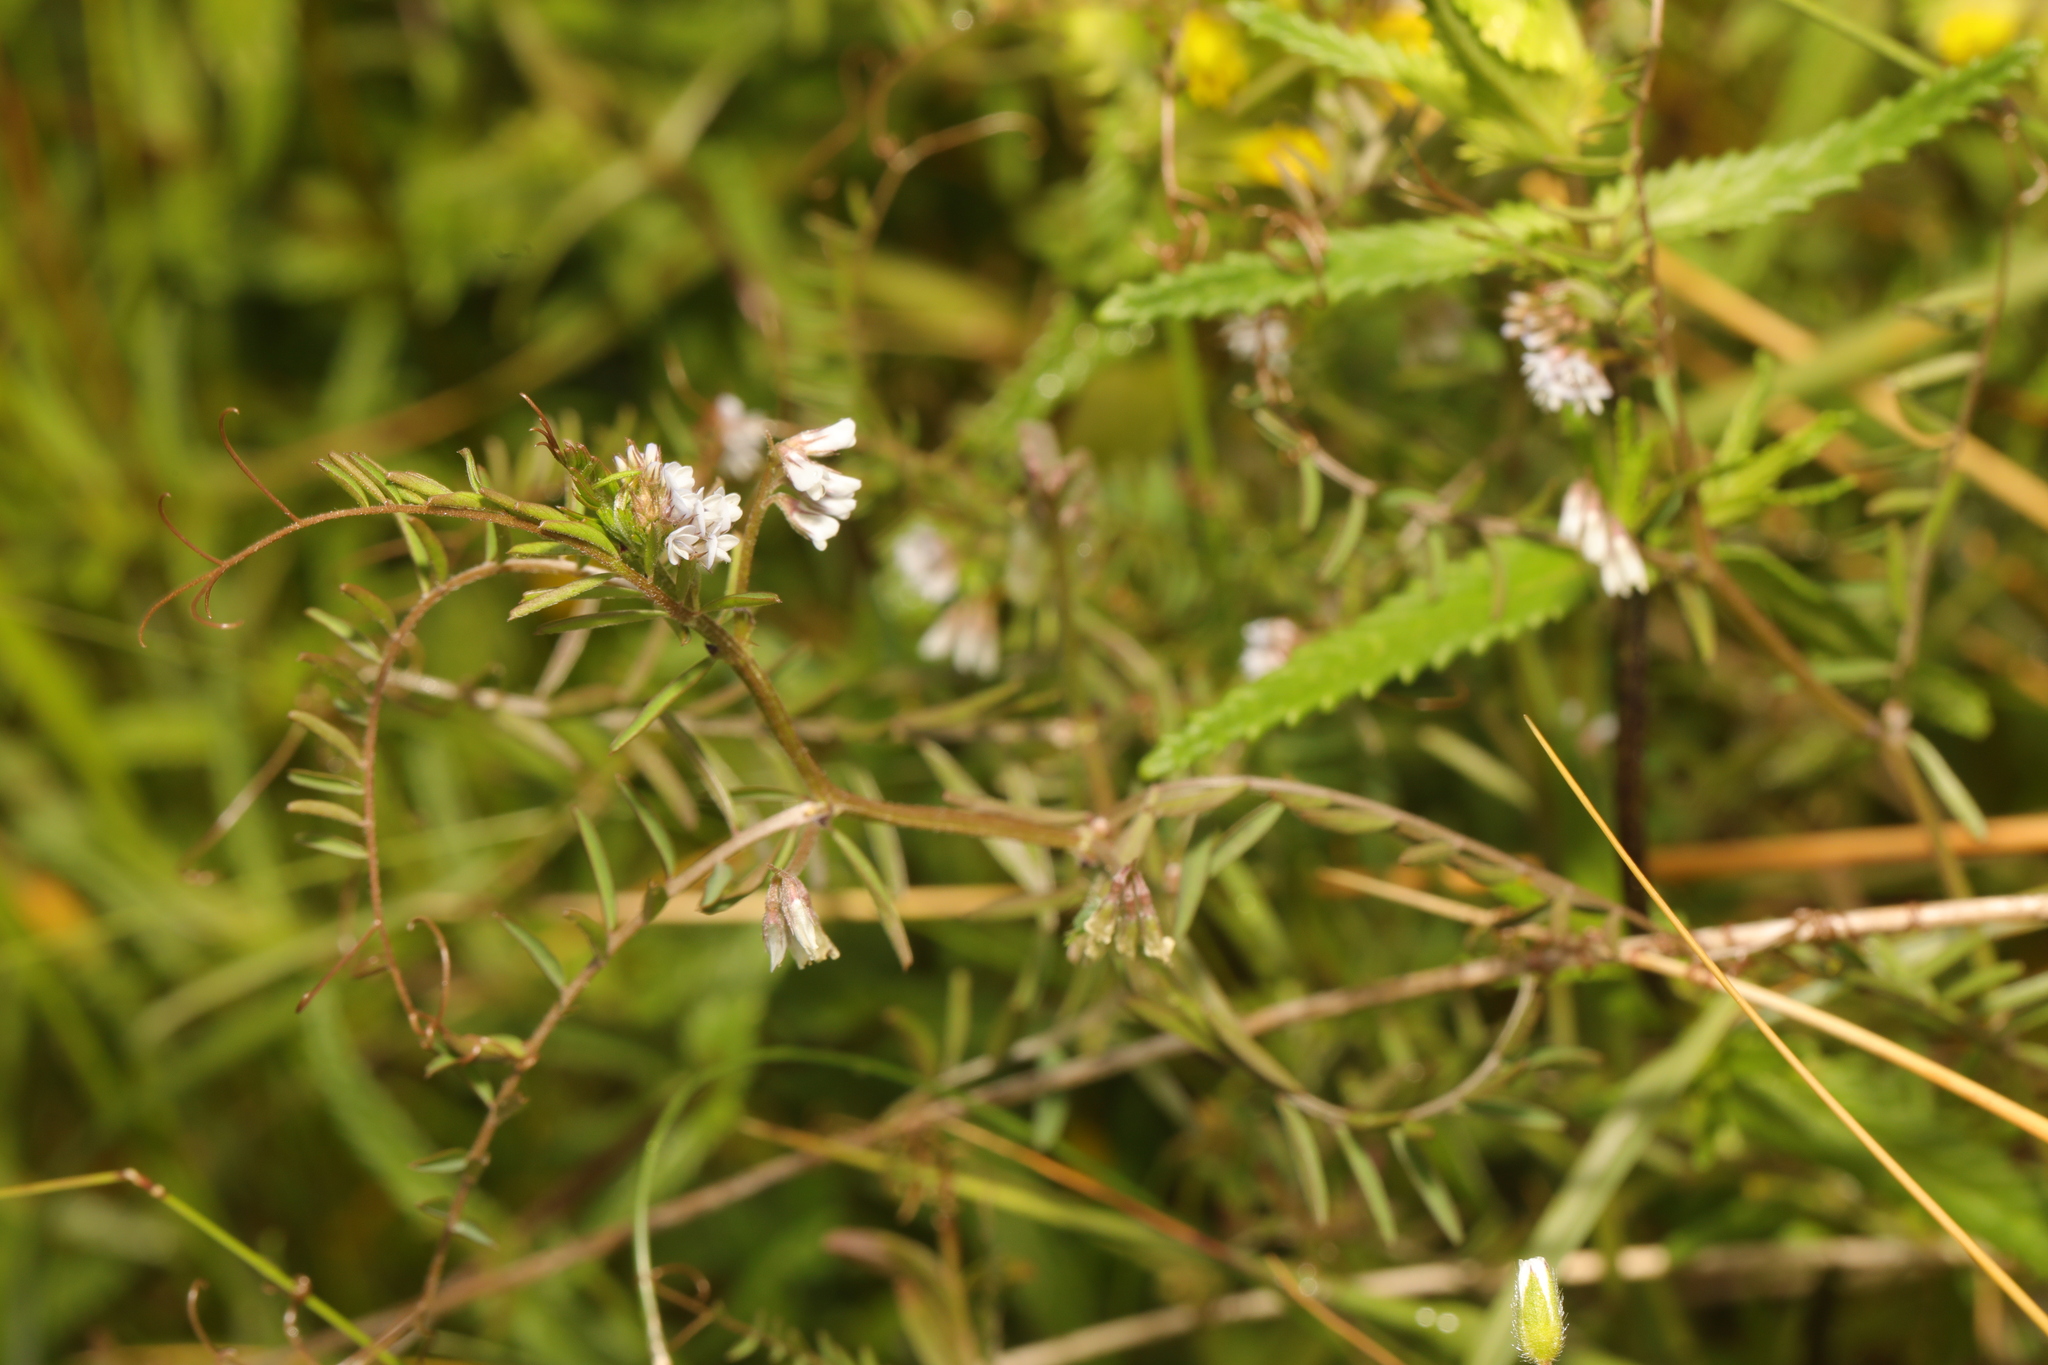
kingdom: Plantae
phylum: Tracheophyta
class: Magnoliopsida
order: Fabales
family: Fabaceae
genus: Vicia
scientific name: Vicia hirsuta
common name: Tiny vetch
